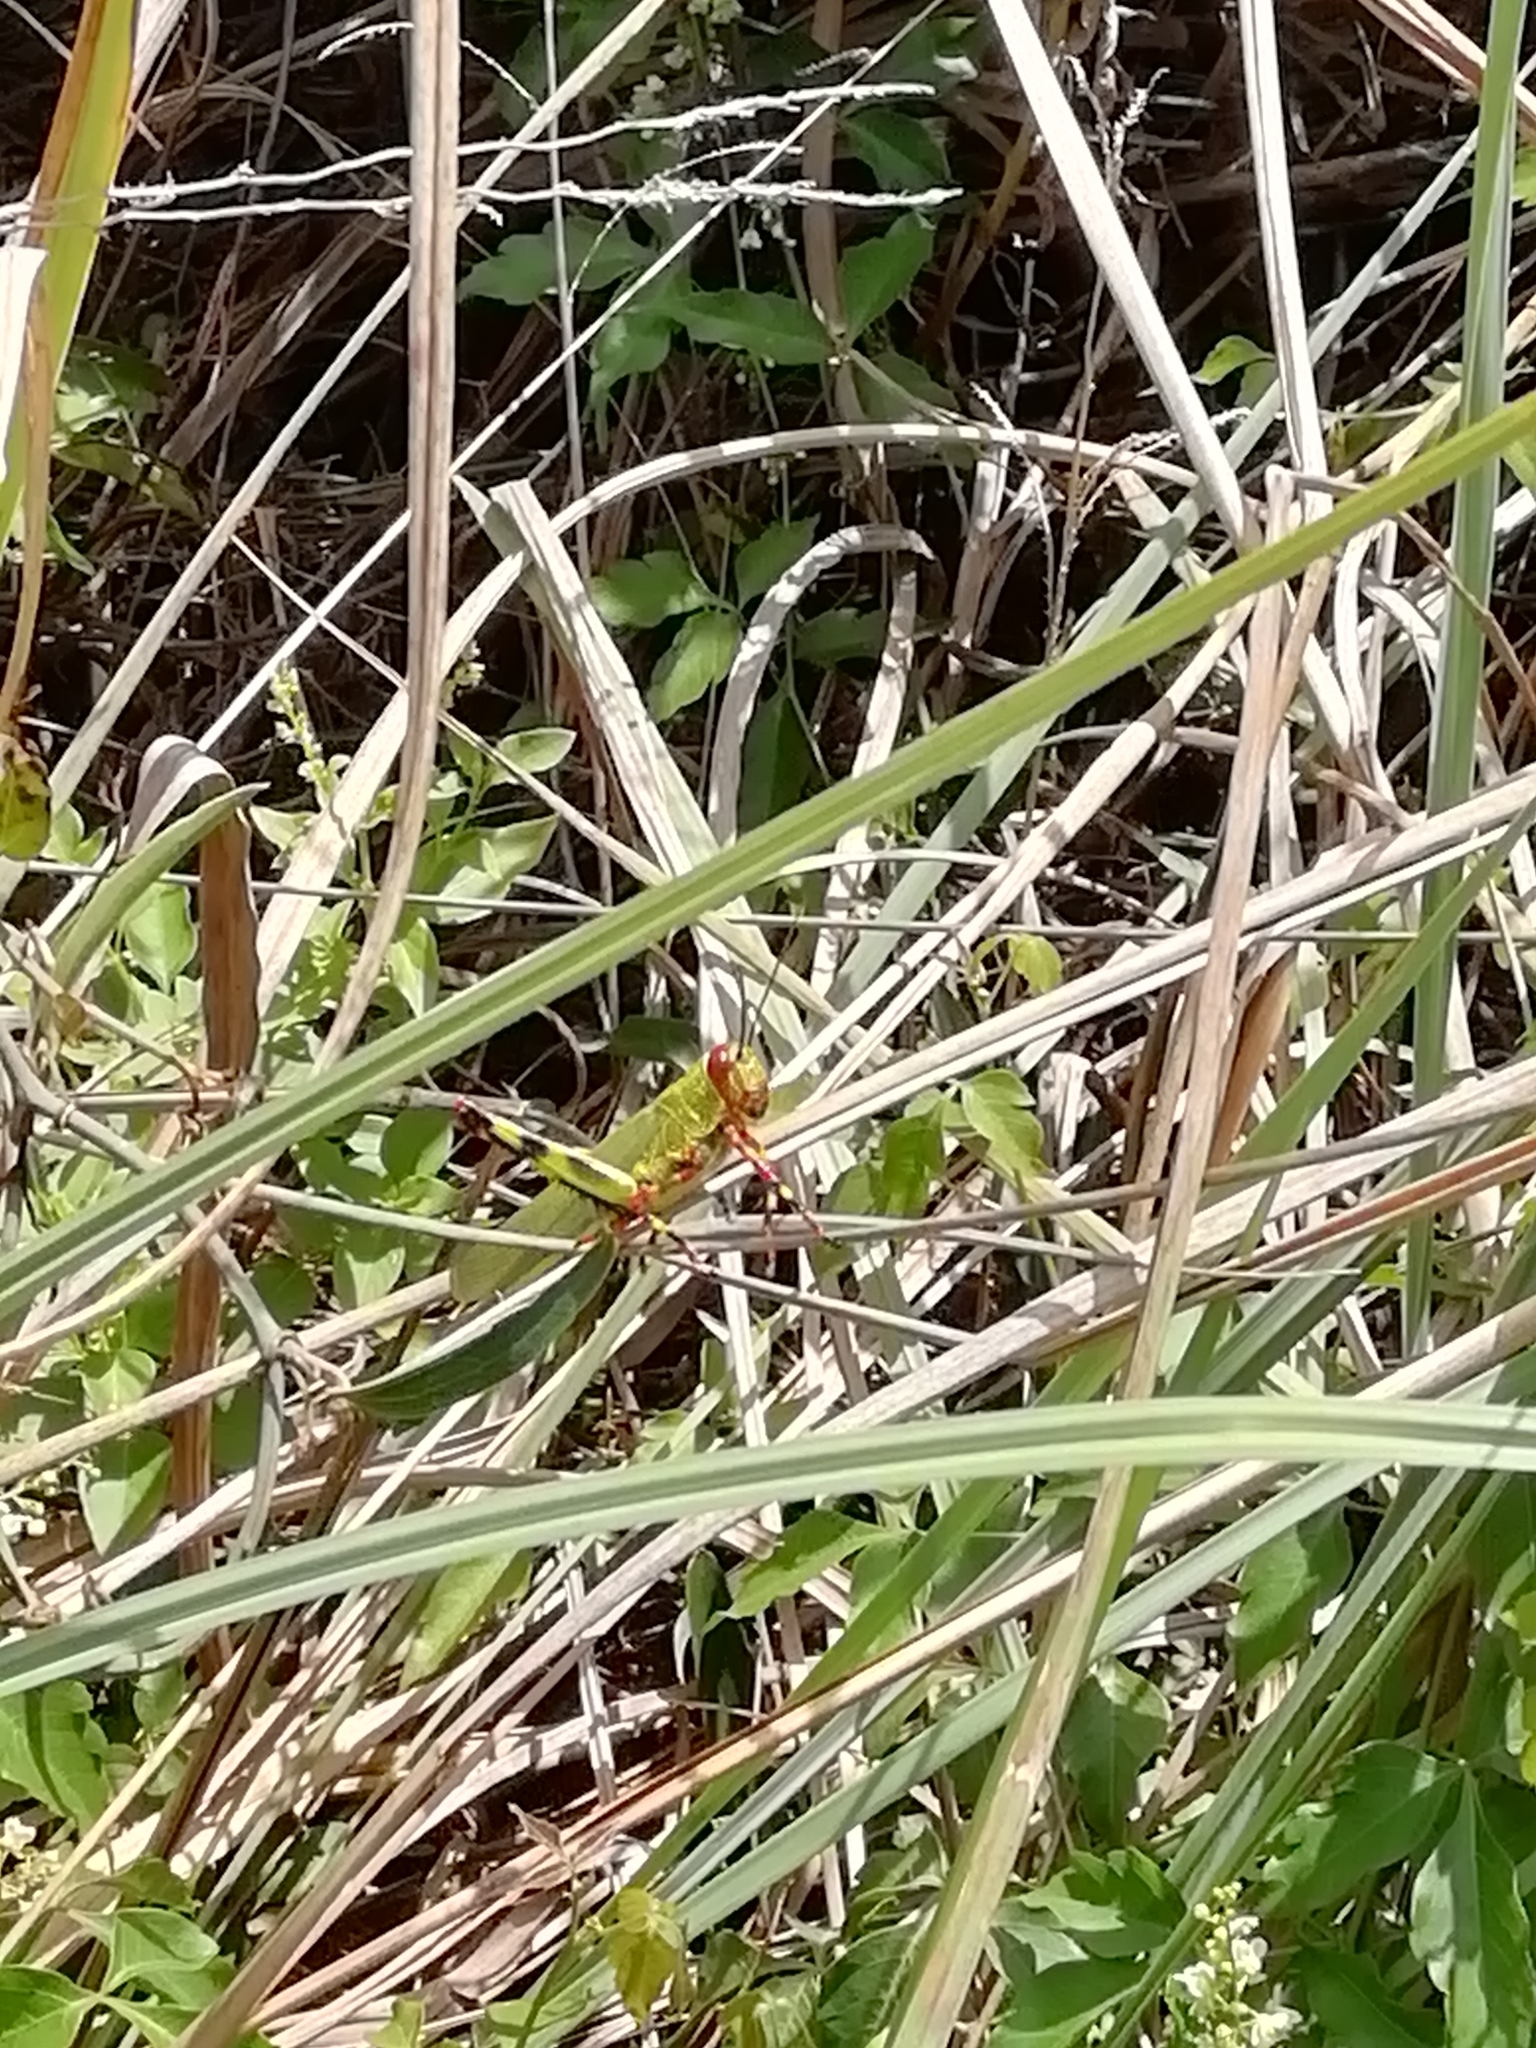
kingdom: Animalia
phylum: Arthropoda
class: Insecta
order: Orthoptera
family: Romaleidae
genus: Zoniopoda
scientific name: Zoniopoda tarsata
